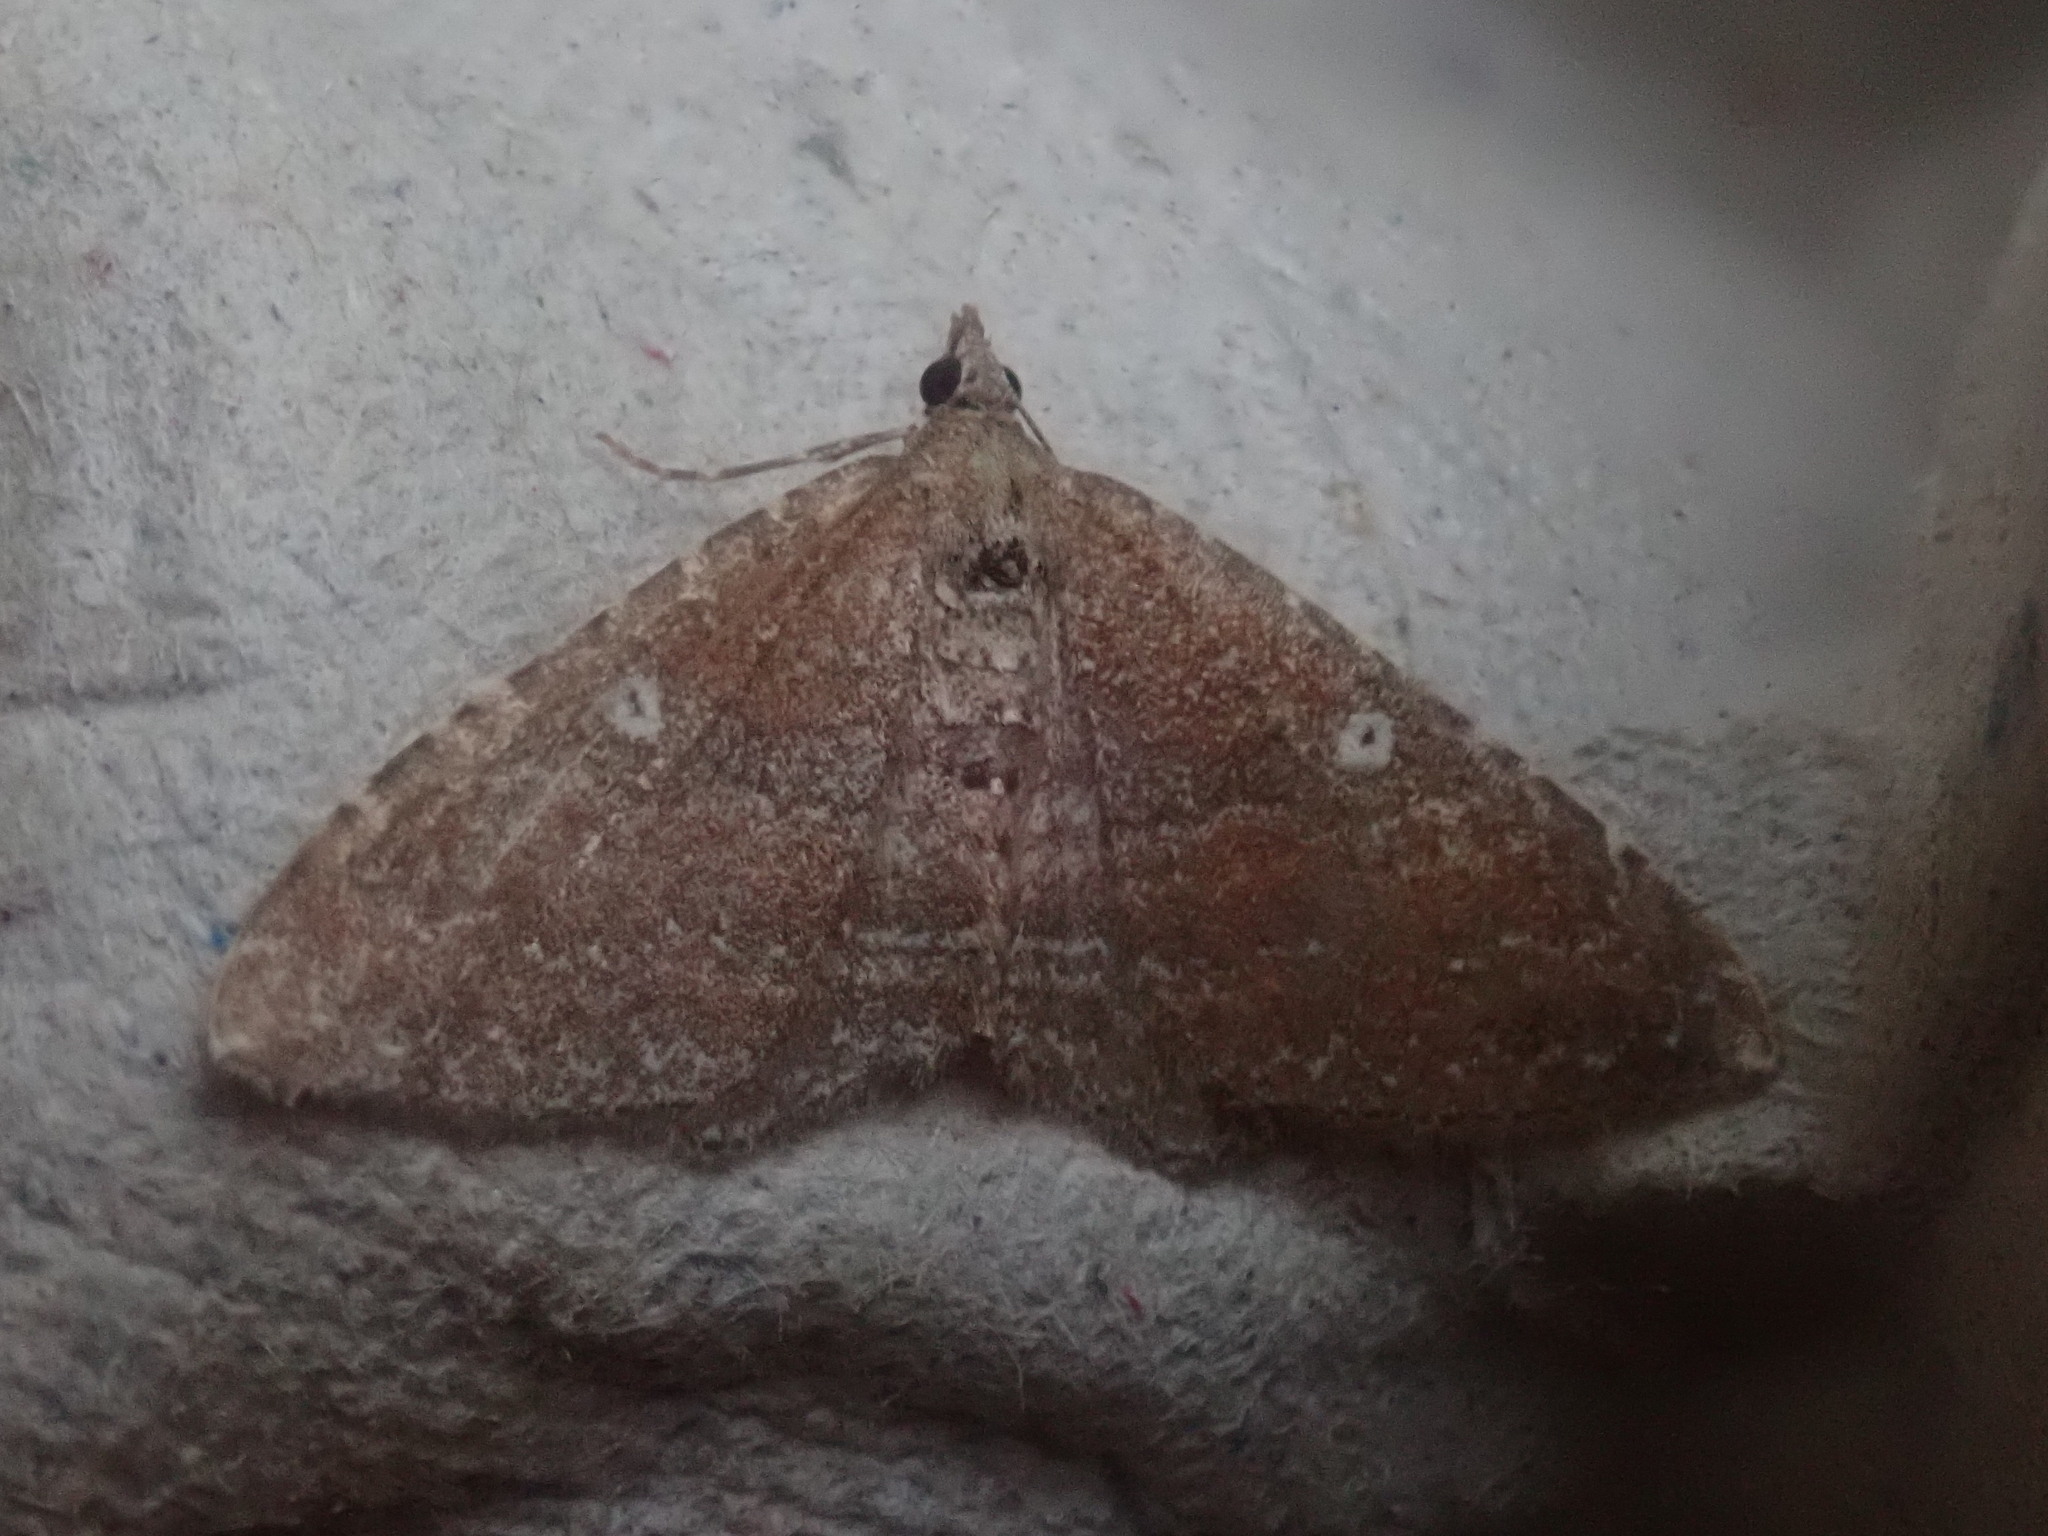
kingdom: Animalia
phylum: Arthropoda
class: Insecta
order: Lepidoptera
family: Geometridae
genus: Orthonama
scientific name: Orthonama obstipata
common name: The gem
